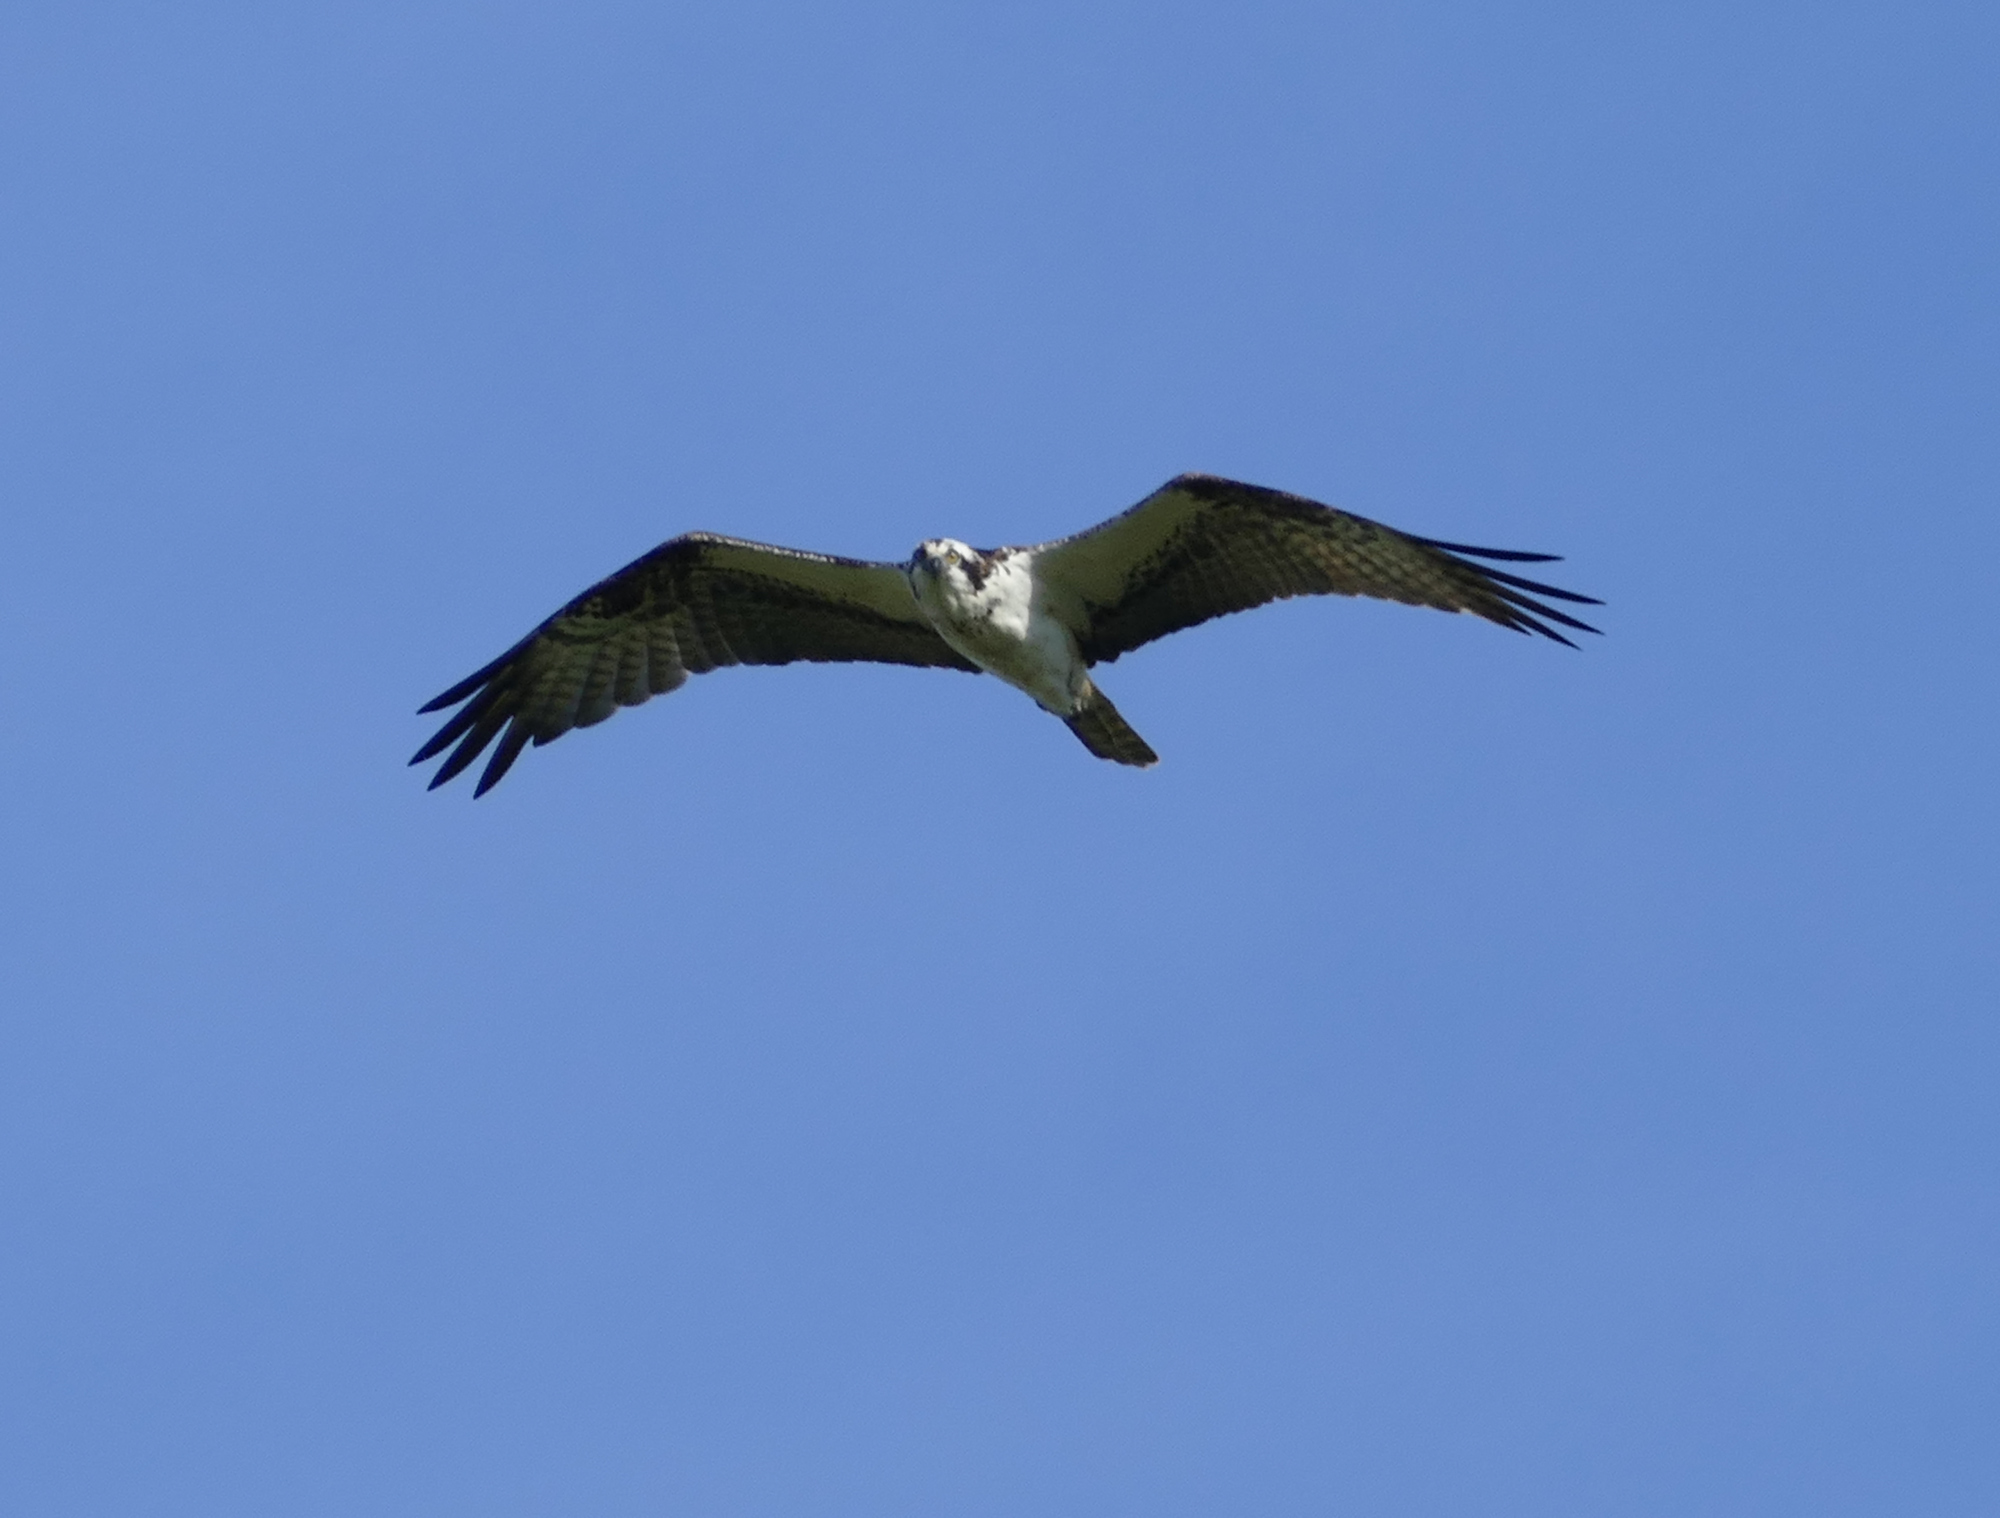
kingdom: Animalia
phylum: Chordata
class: Aves
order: Accipitriformes
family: Pandionidae
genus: Pandion
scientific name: Pandion haliaetus
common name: Osprey
